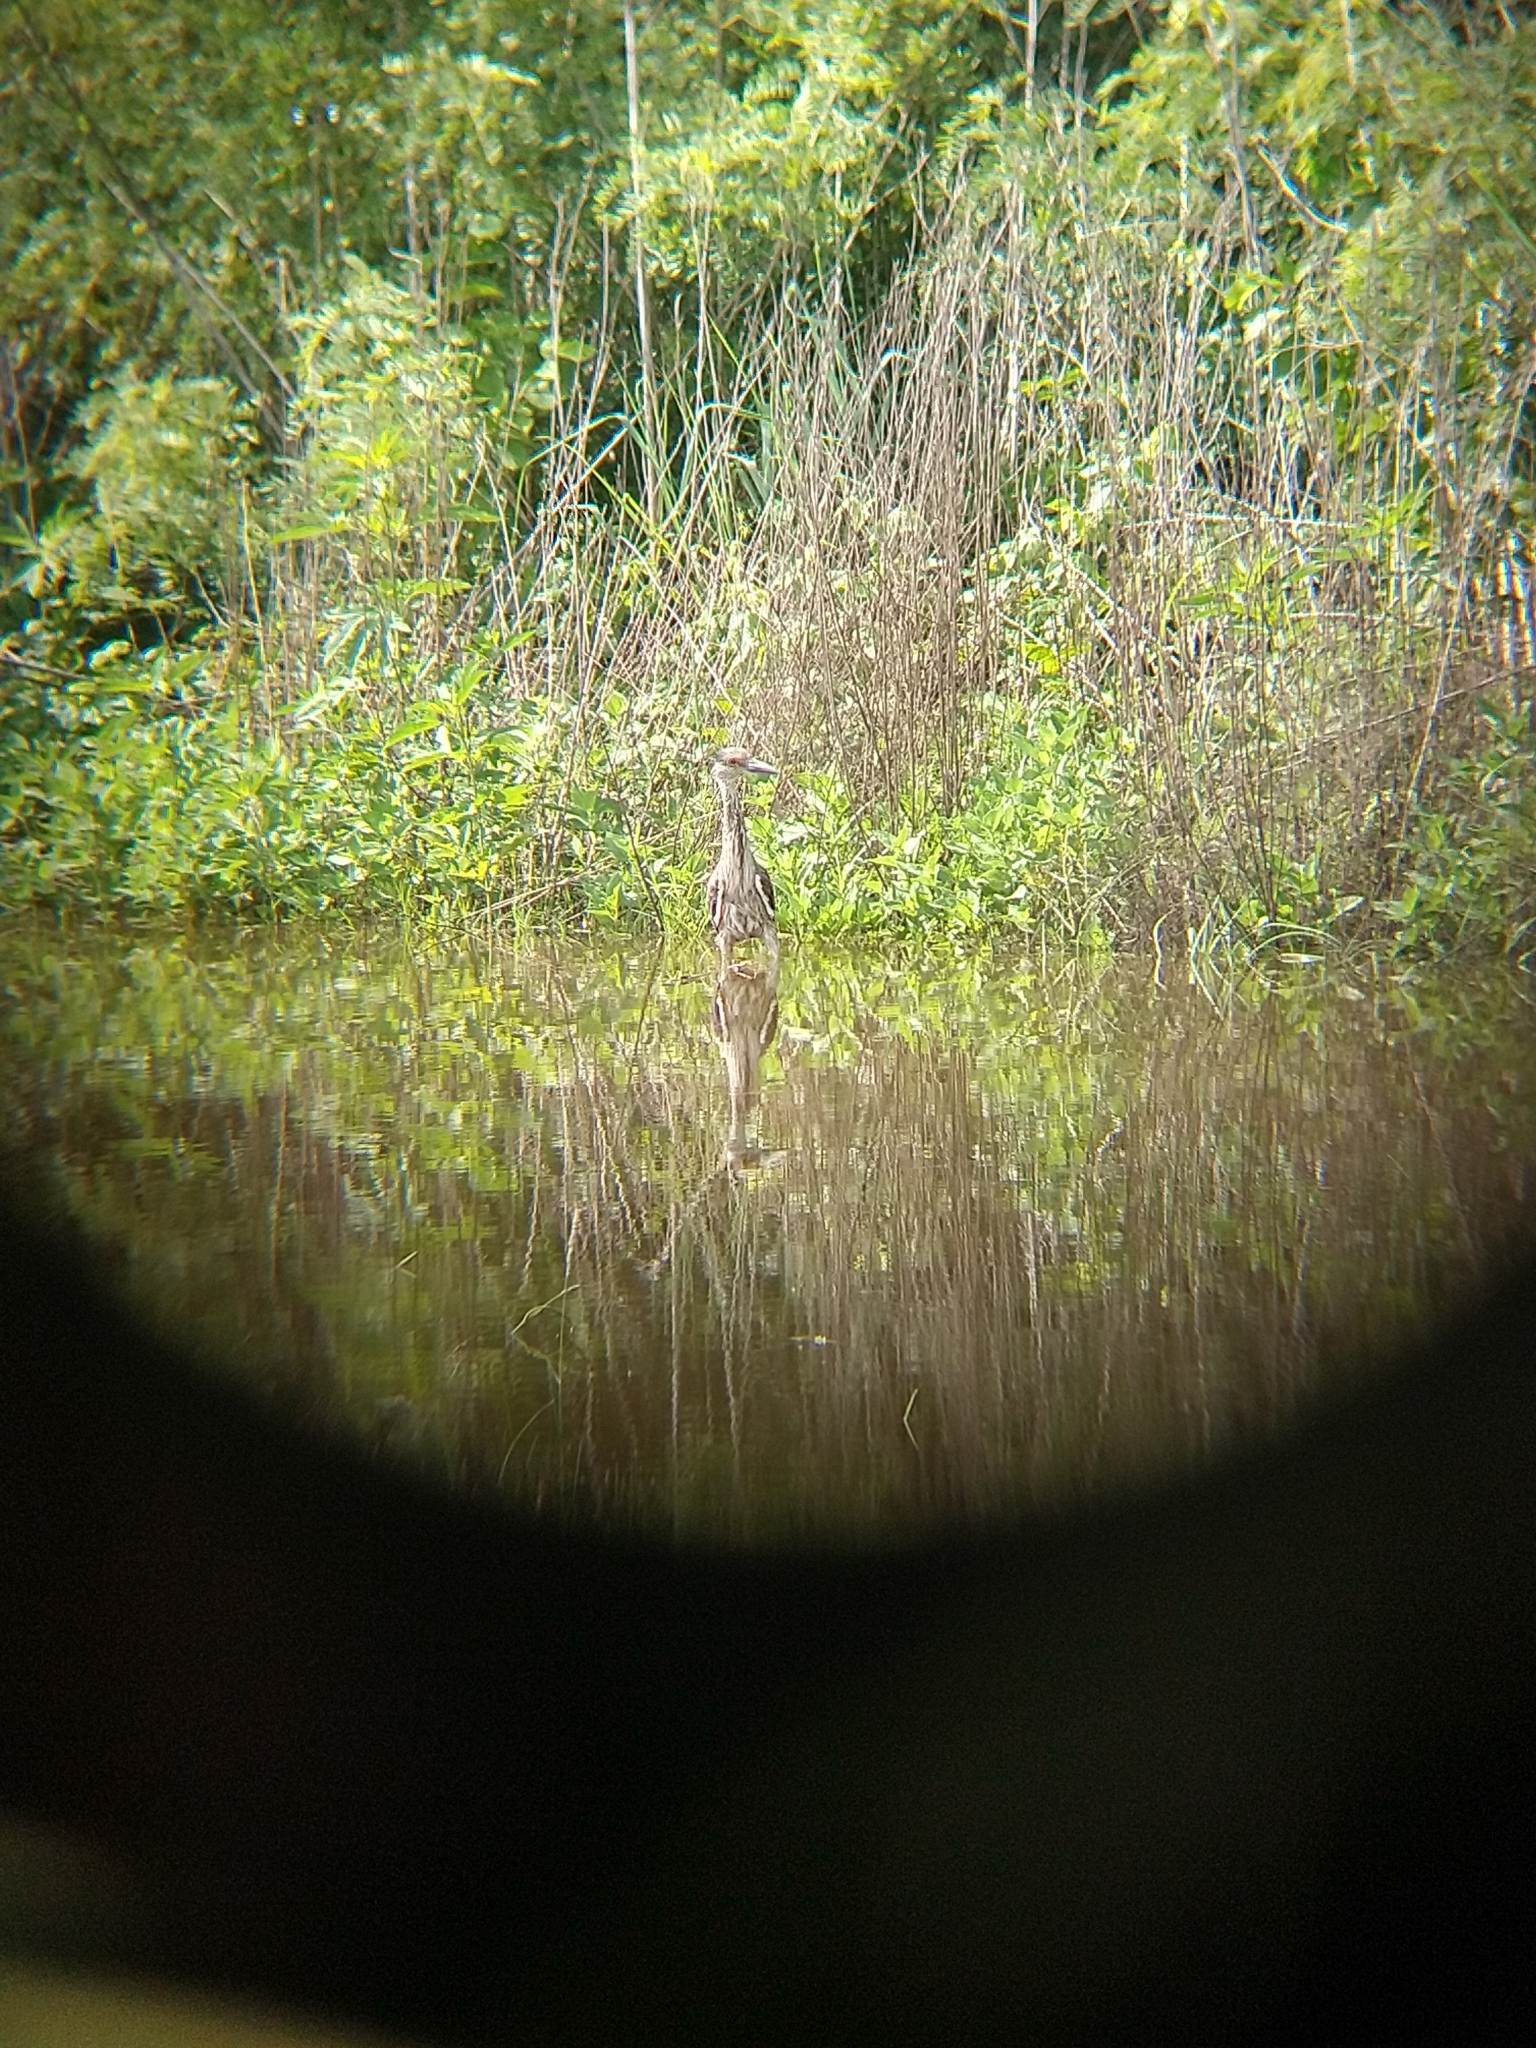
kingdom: Animalia
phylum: Chordata
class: Aves
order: Pelecaniformes
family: Ardeidae
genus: Nyctanassa
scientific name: Nyctanassa violacea
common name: Yellow-crowned night heron
